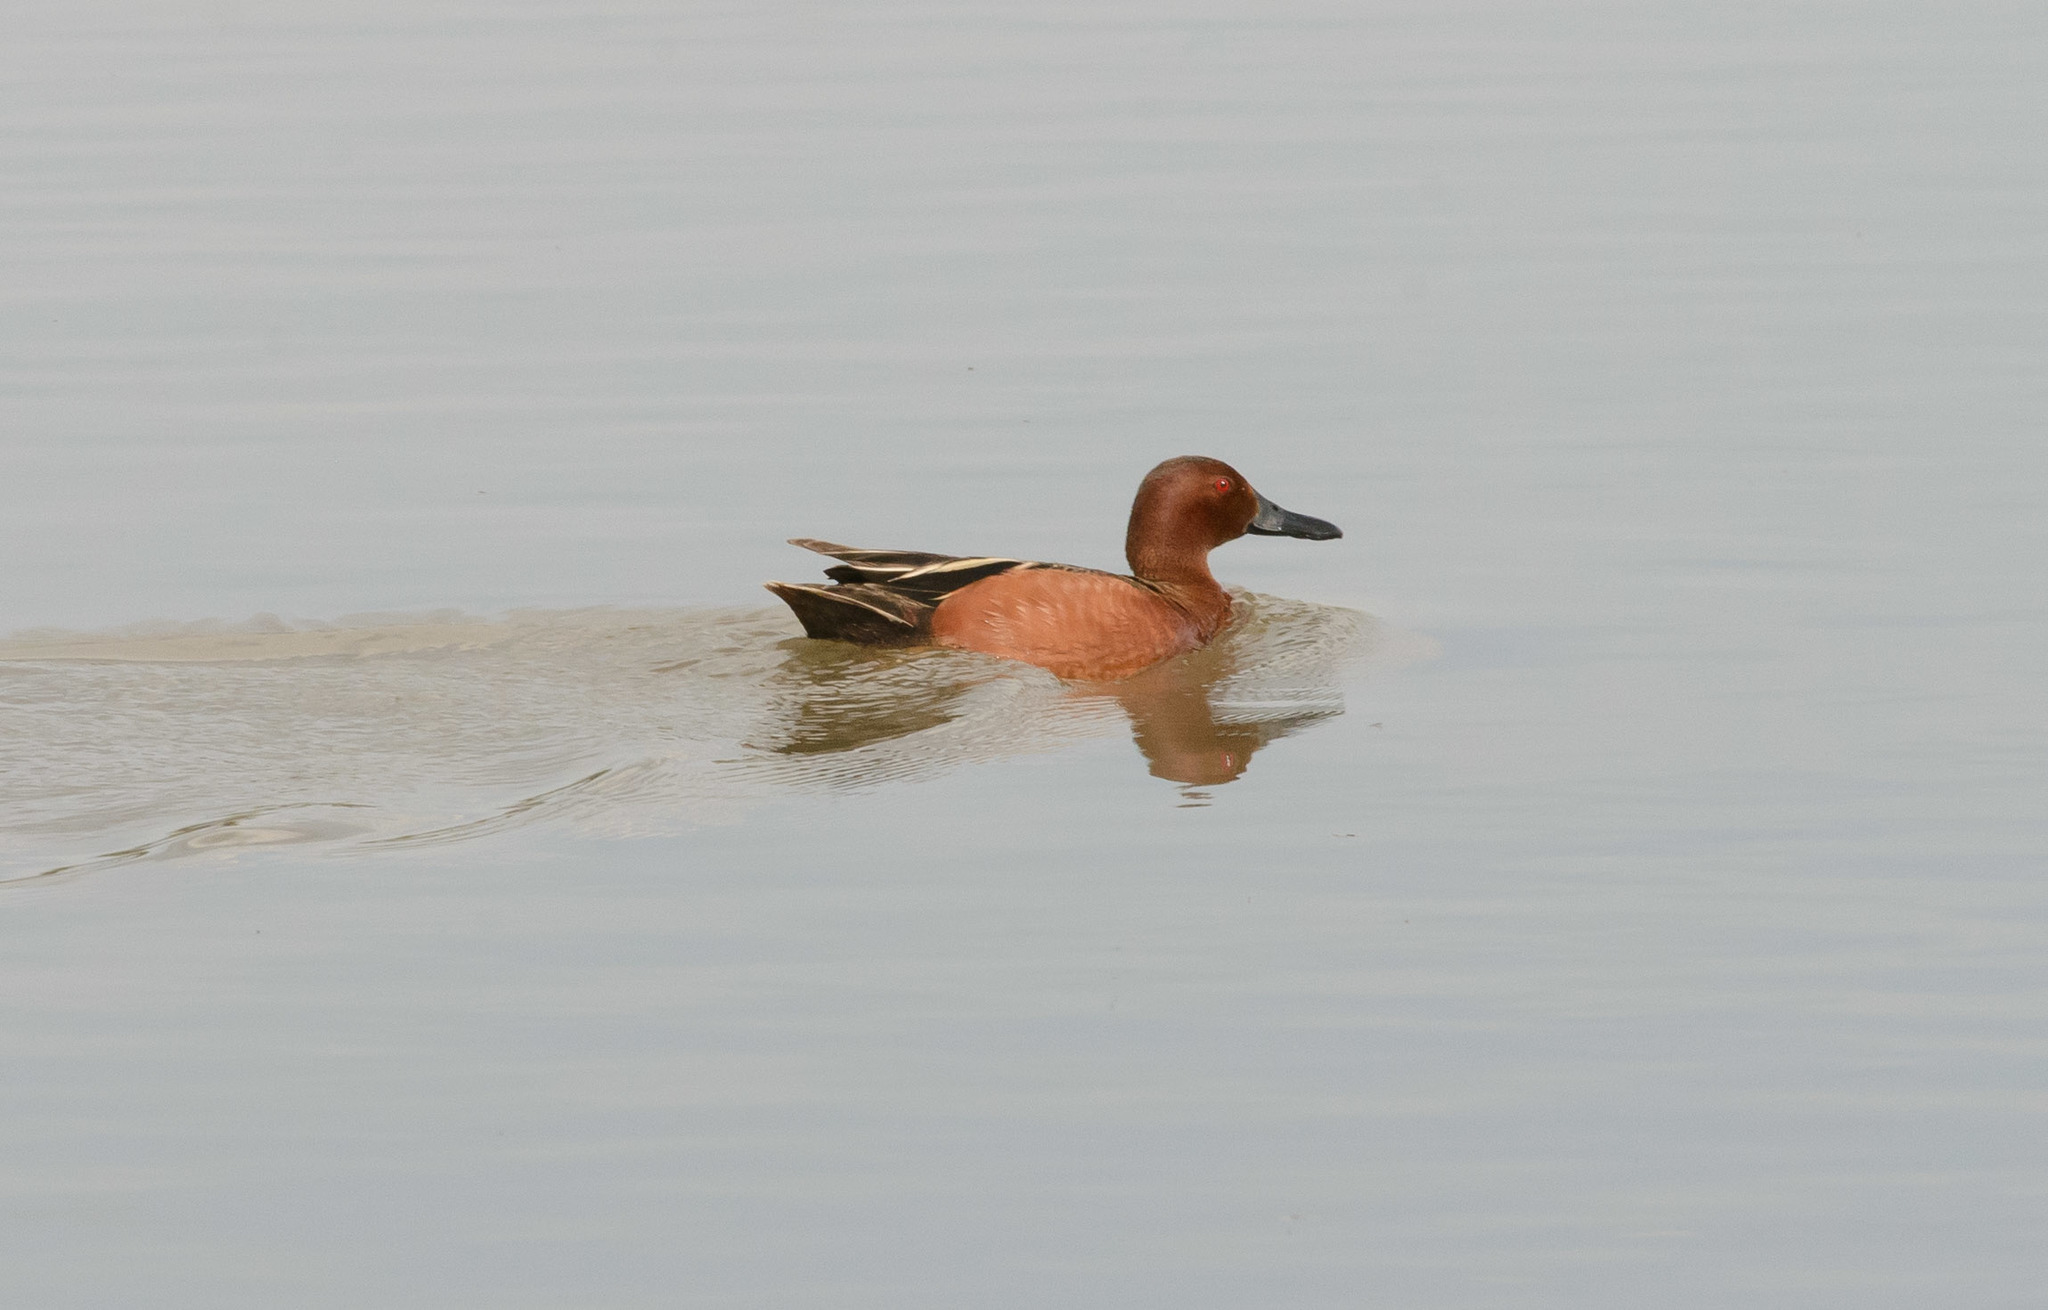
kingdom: Animalia
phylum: Chordata
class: Aves
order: Anseriformes
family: Anatidae
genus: Spatula
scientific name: Spatula cyanoptera
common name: Cinnamon teal
